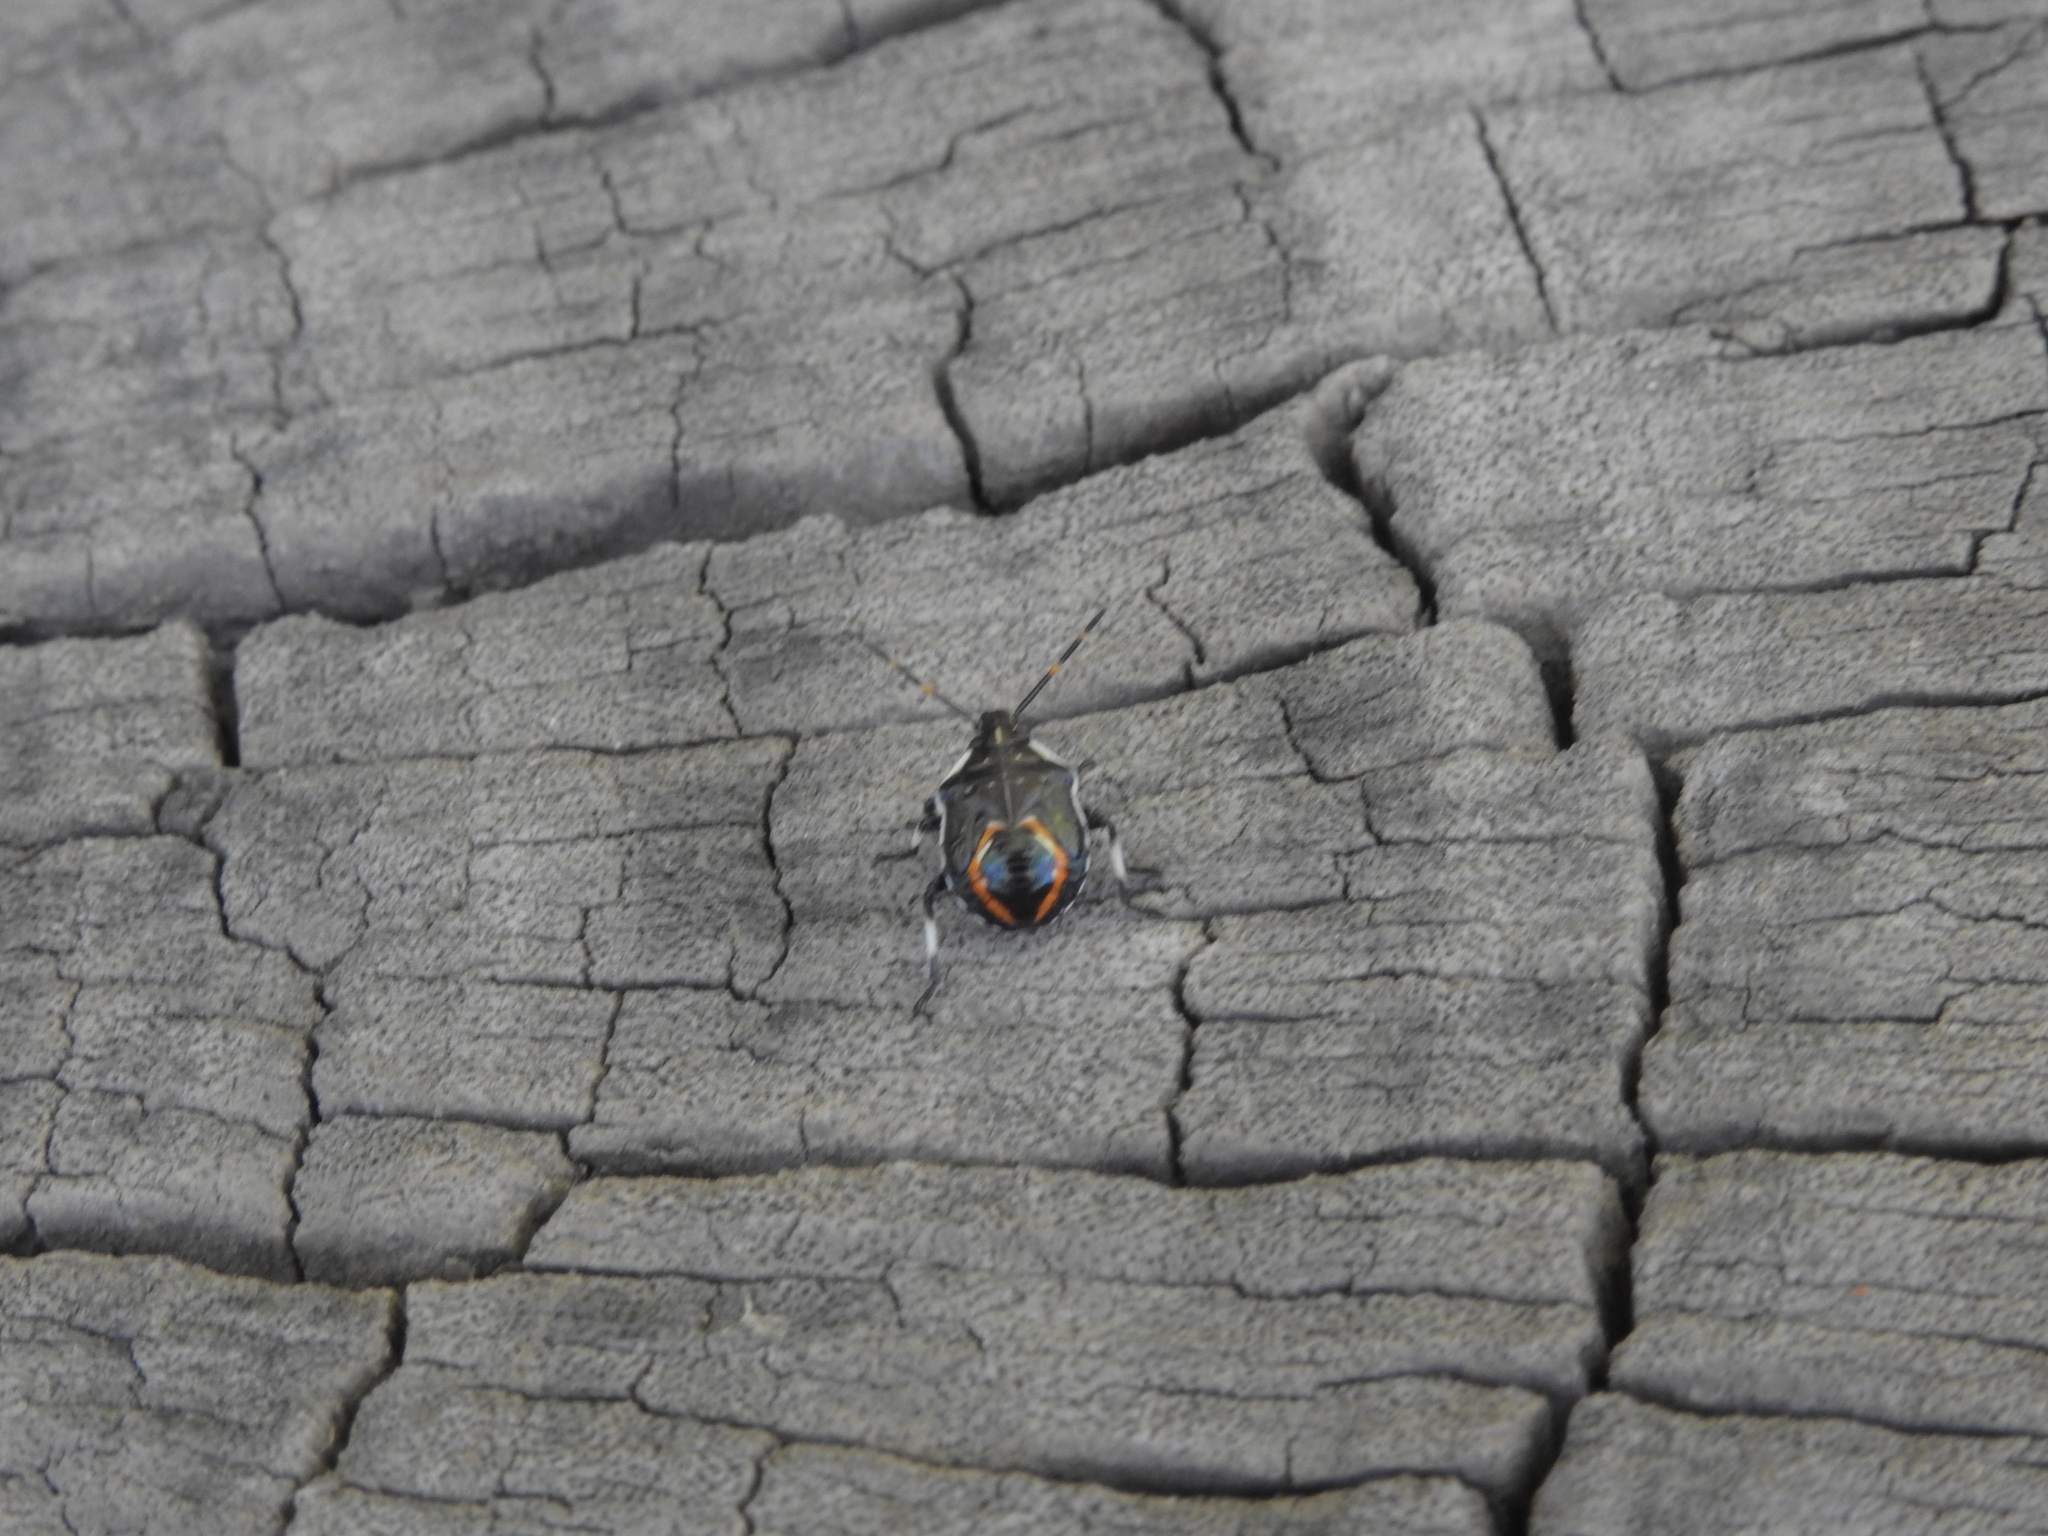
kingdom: Animalia
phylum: Arthropoda
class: Insecta
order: Hemiptera
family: Pentatomidae
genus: Oechalia
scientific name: Oechalia schellenbergii
